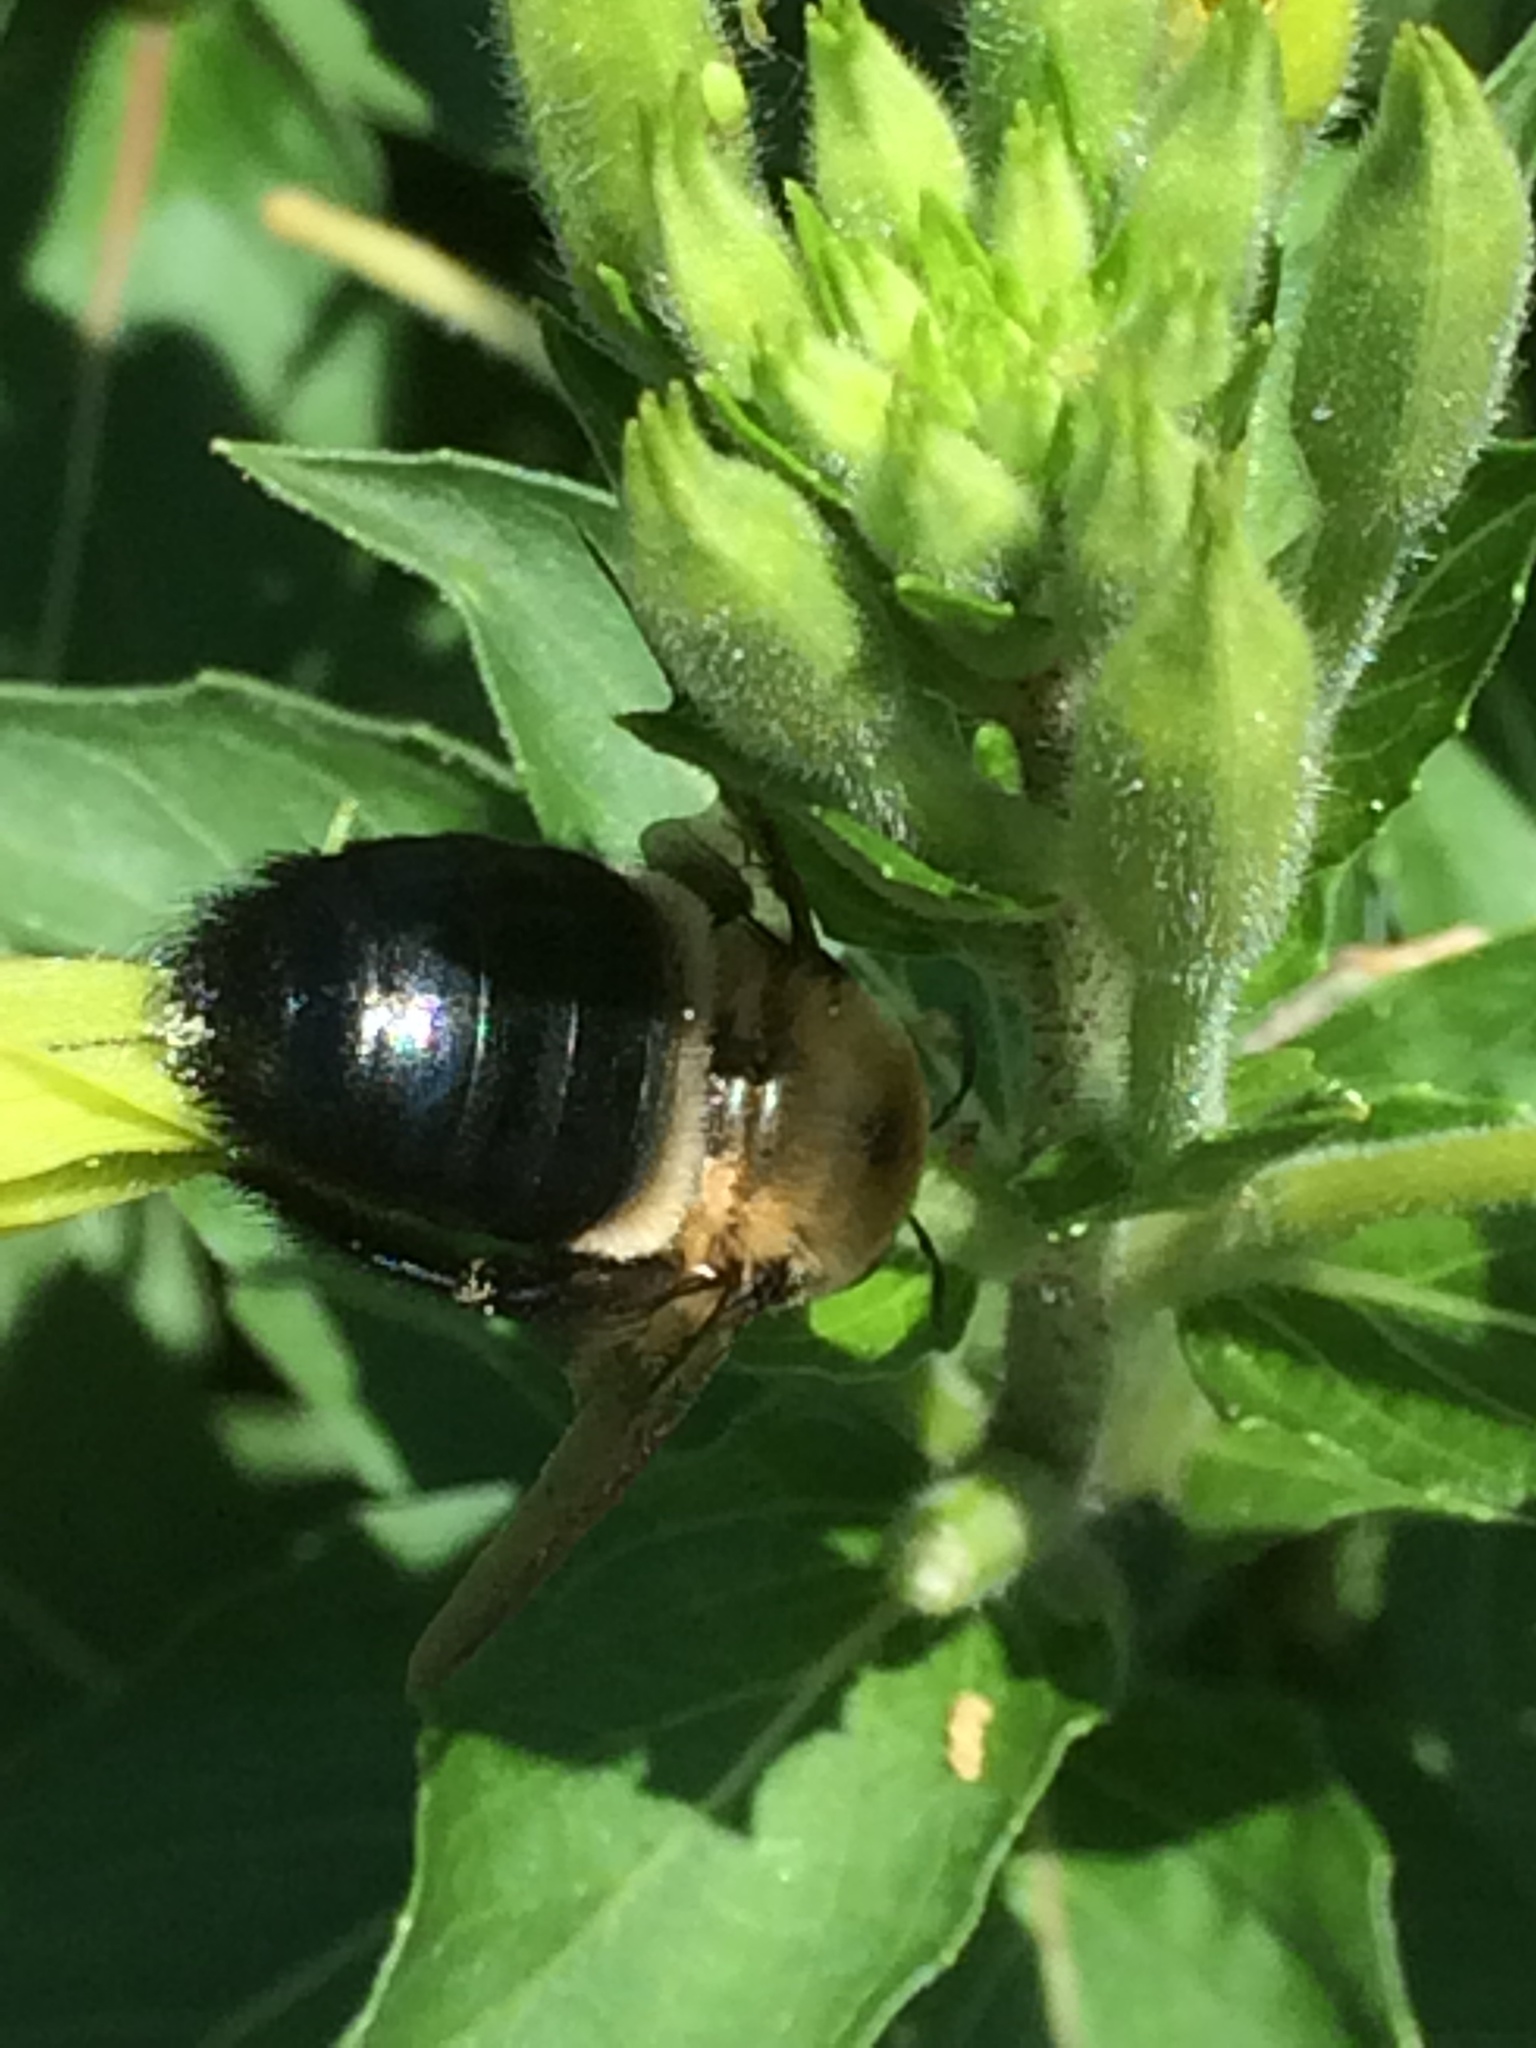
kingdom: Animalia
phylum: Arthropoda
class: Insecta
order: Hymenoptera
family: Apidae
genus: Xylocopa
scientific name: Xylocopa virginica
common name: Carpenter bee
